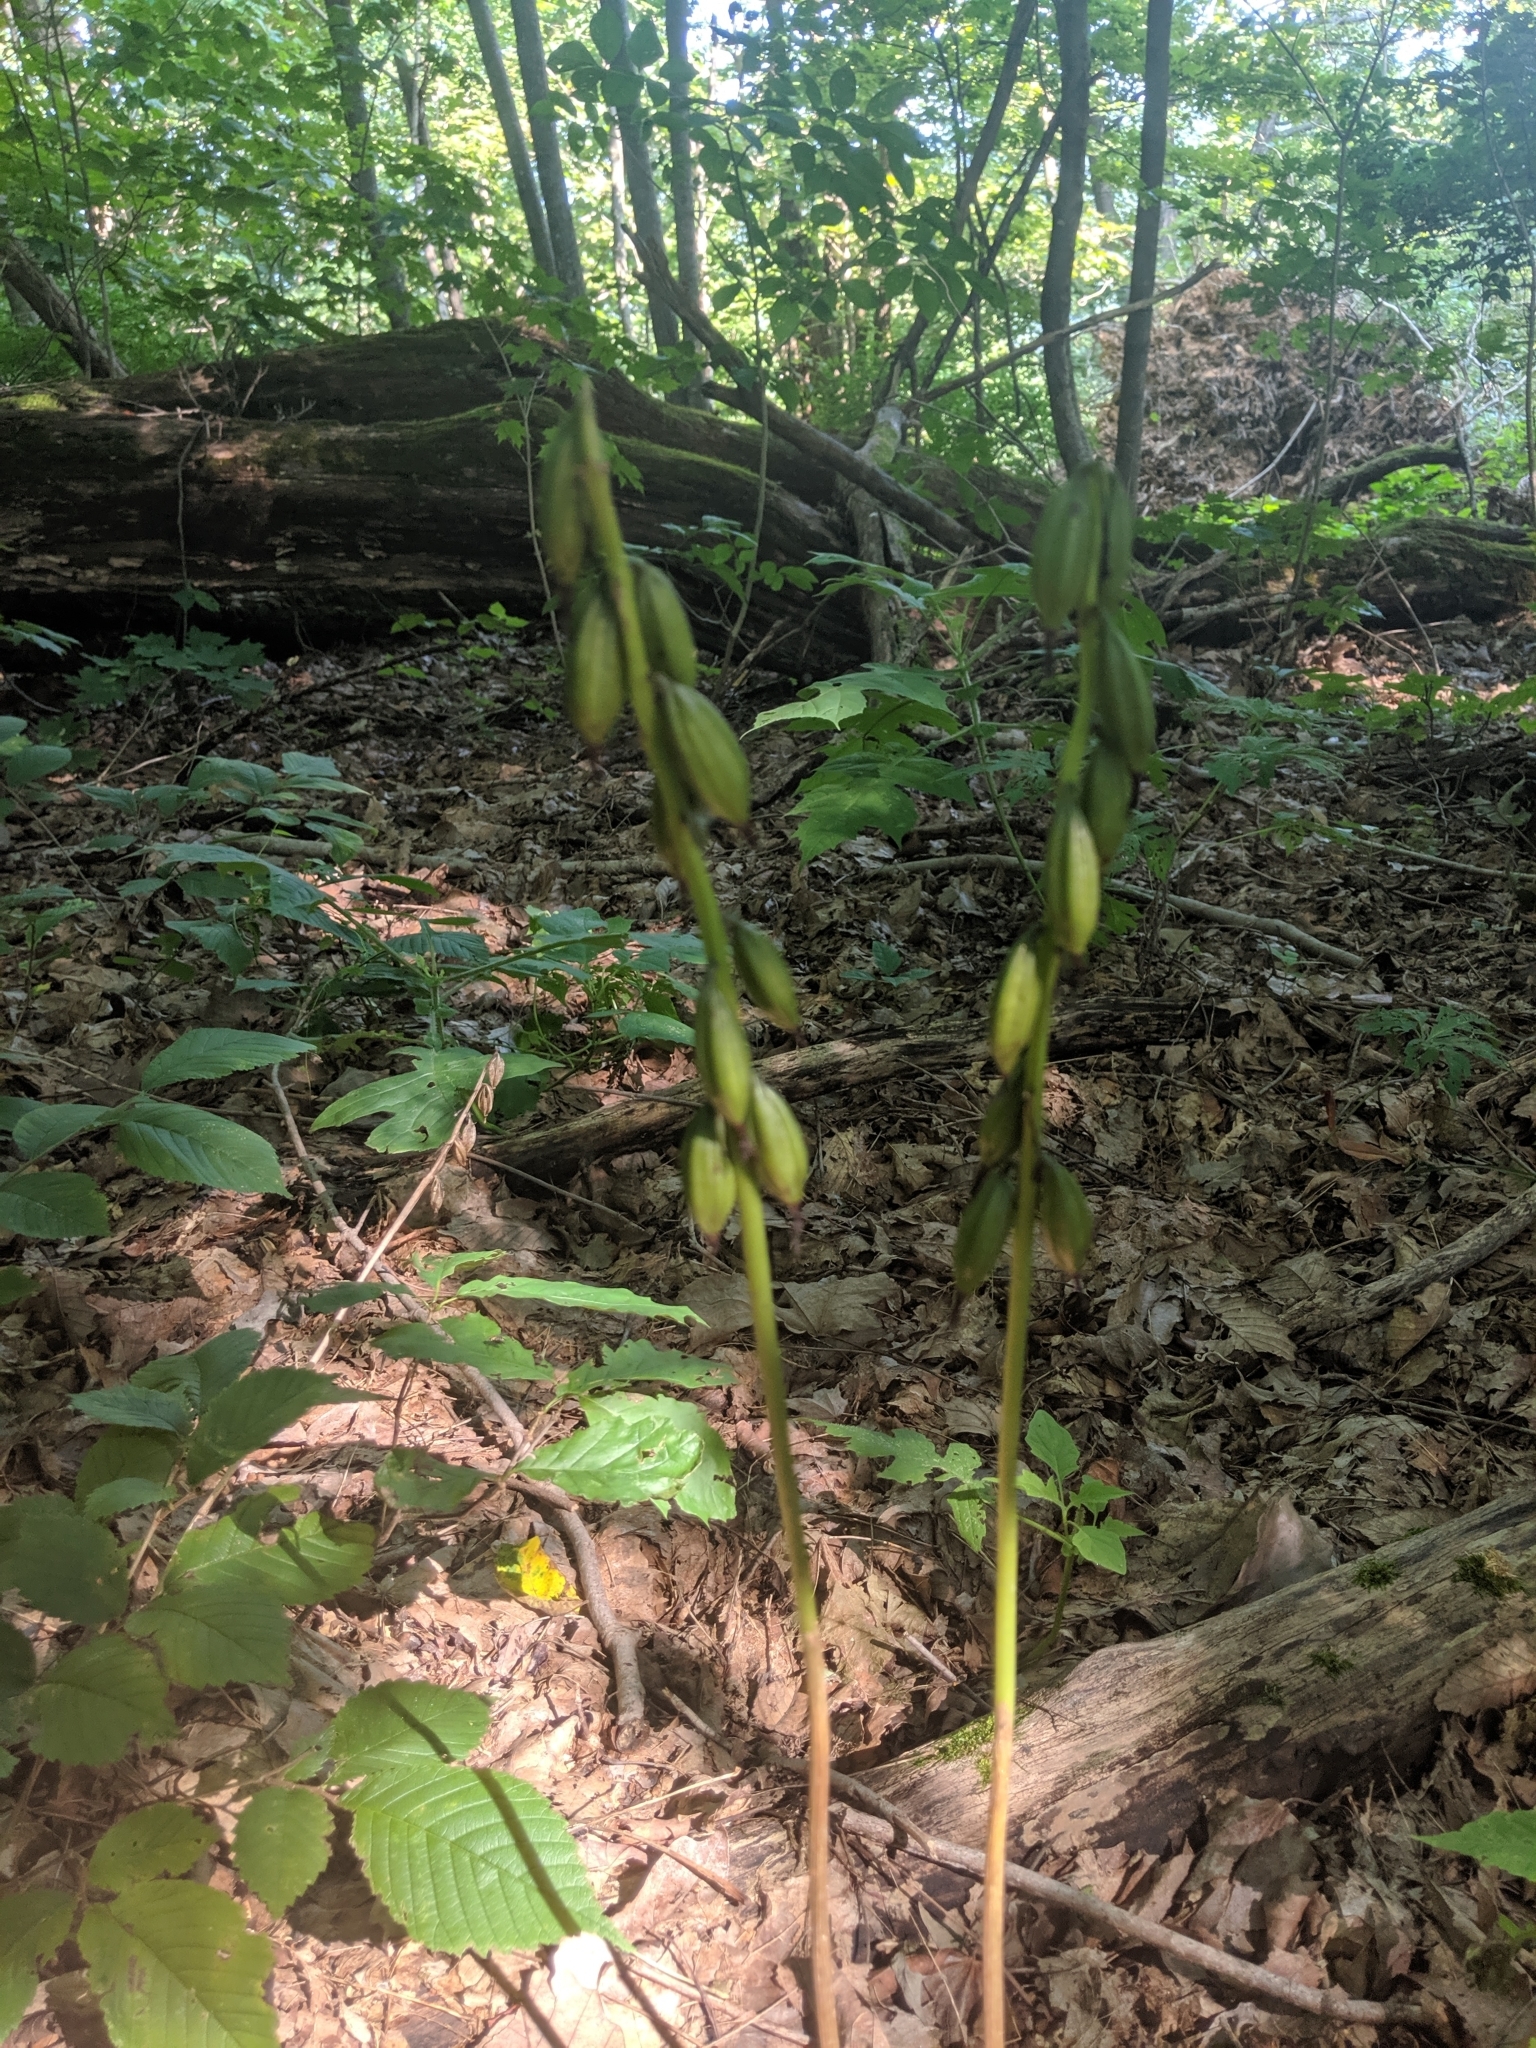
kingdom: Plantae
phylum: Tracheophyta
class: Liliopsida
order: Asparagales
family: Orchidaceae
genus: Aplectrum
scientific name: Aplectrum hyemale
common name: Adam-and-eve
